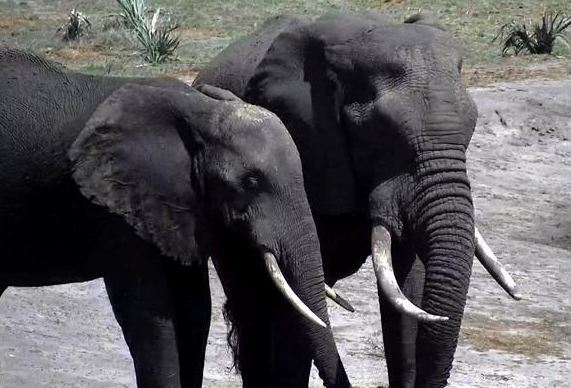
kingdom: Animalia
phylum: Chordata
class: Mammalia
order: Proboscidea
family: Elephantidae
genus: Loxodonta
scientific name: Loxodonta africana
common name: African elephant
